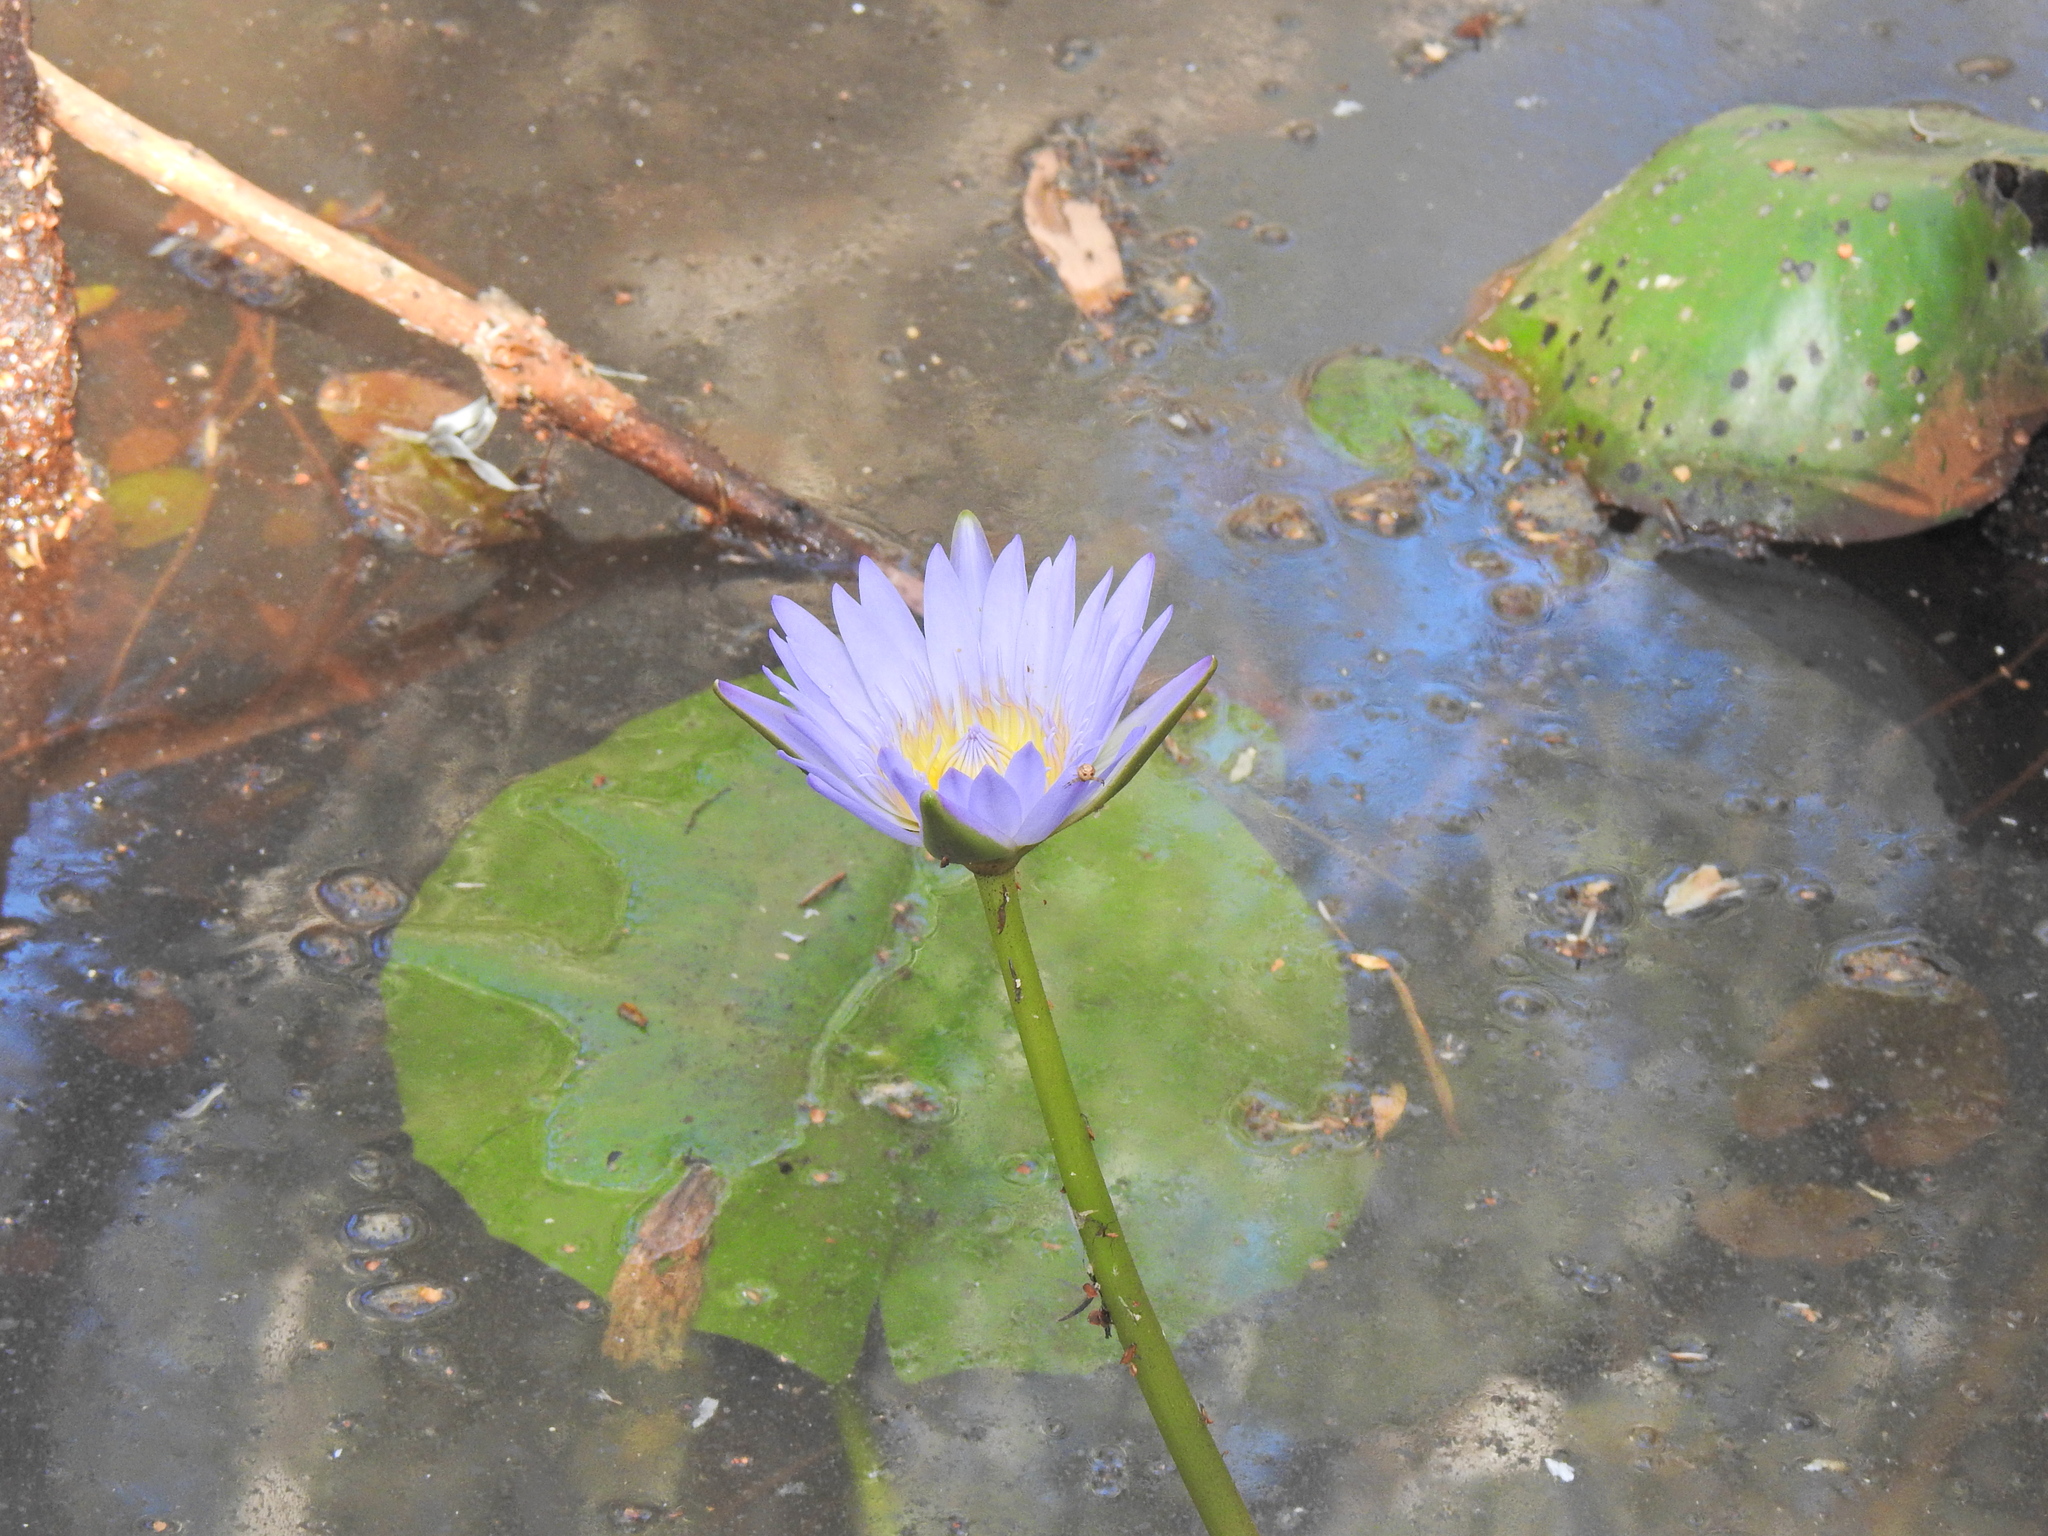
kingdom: Plantae
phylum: Tracheophyta
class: Magnoliopsida
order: Nymphaeales
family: Nymphaeaceae
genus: Nymphaea
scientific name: Nymphaea nouchali
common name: Blue lotus
